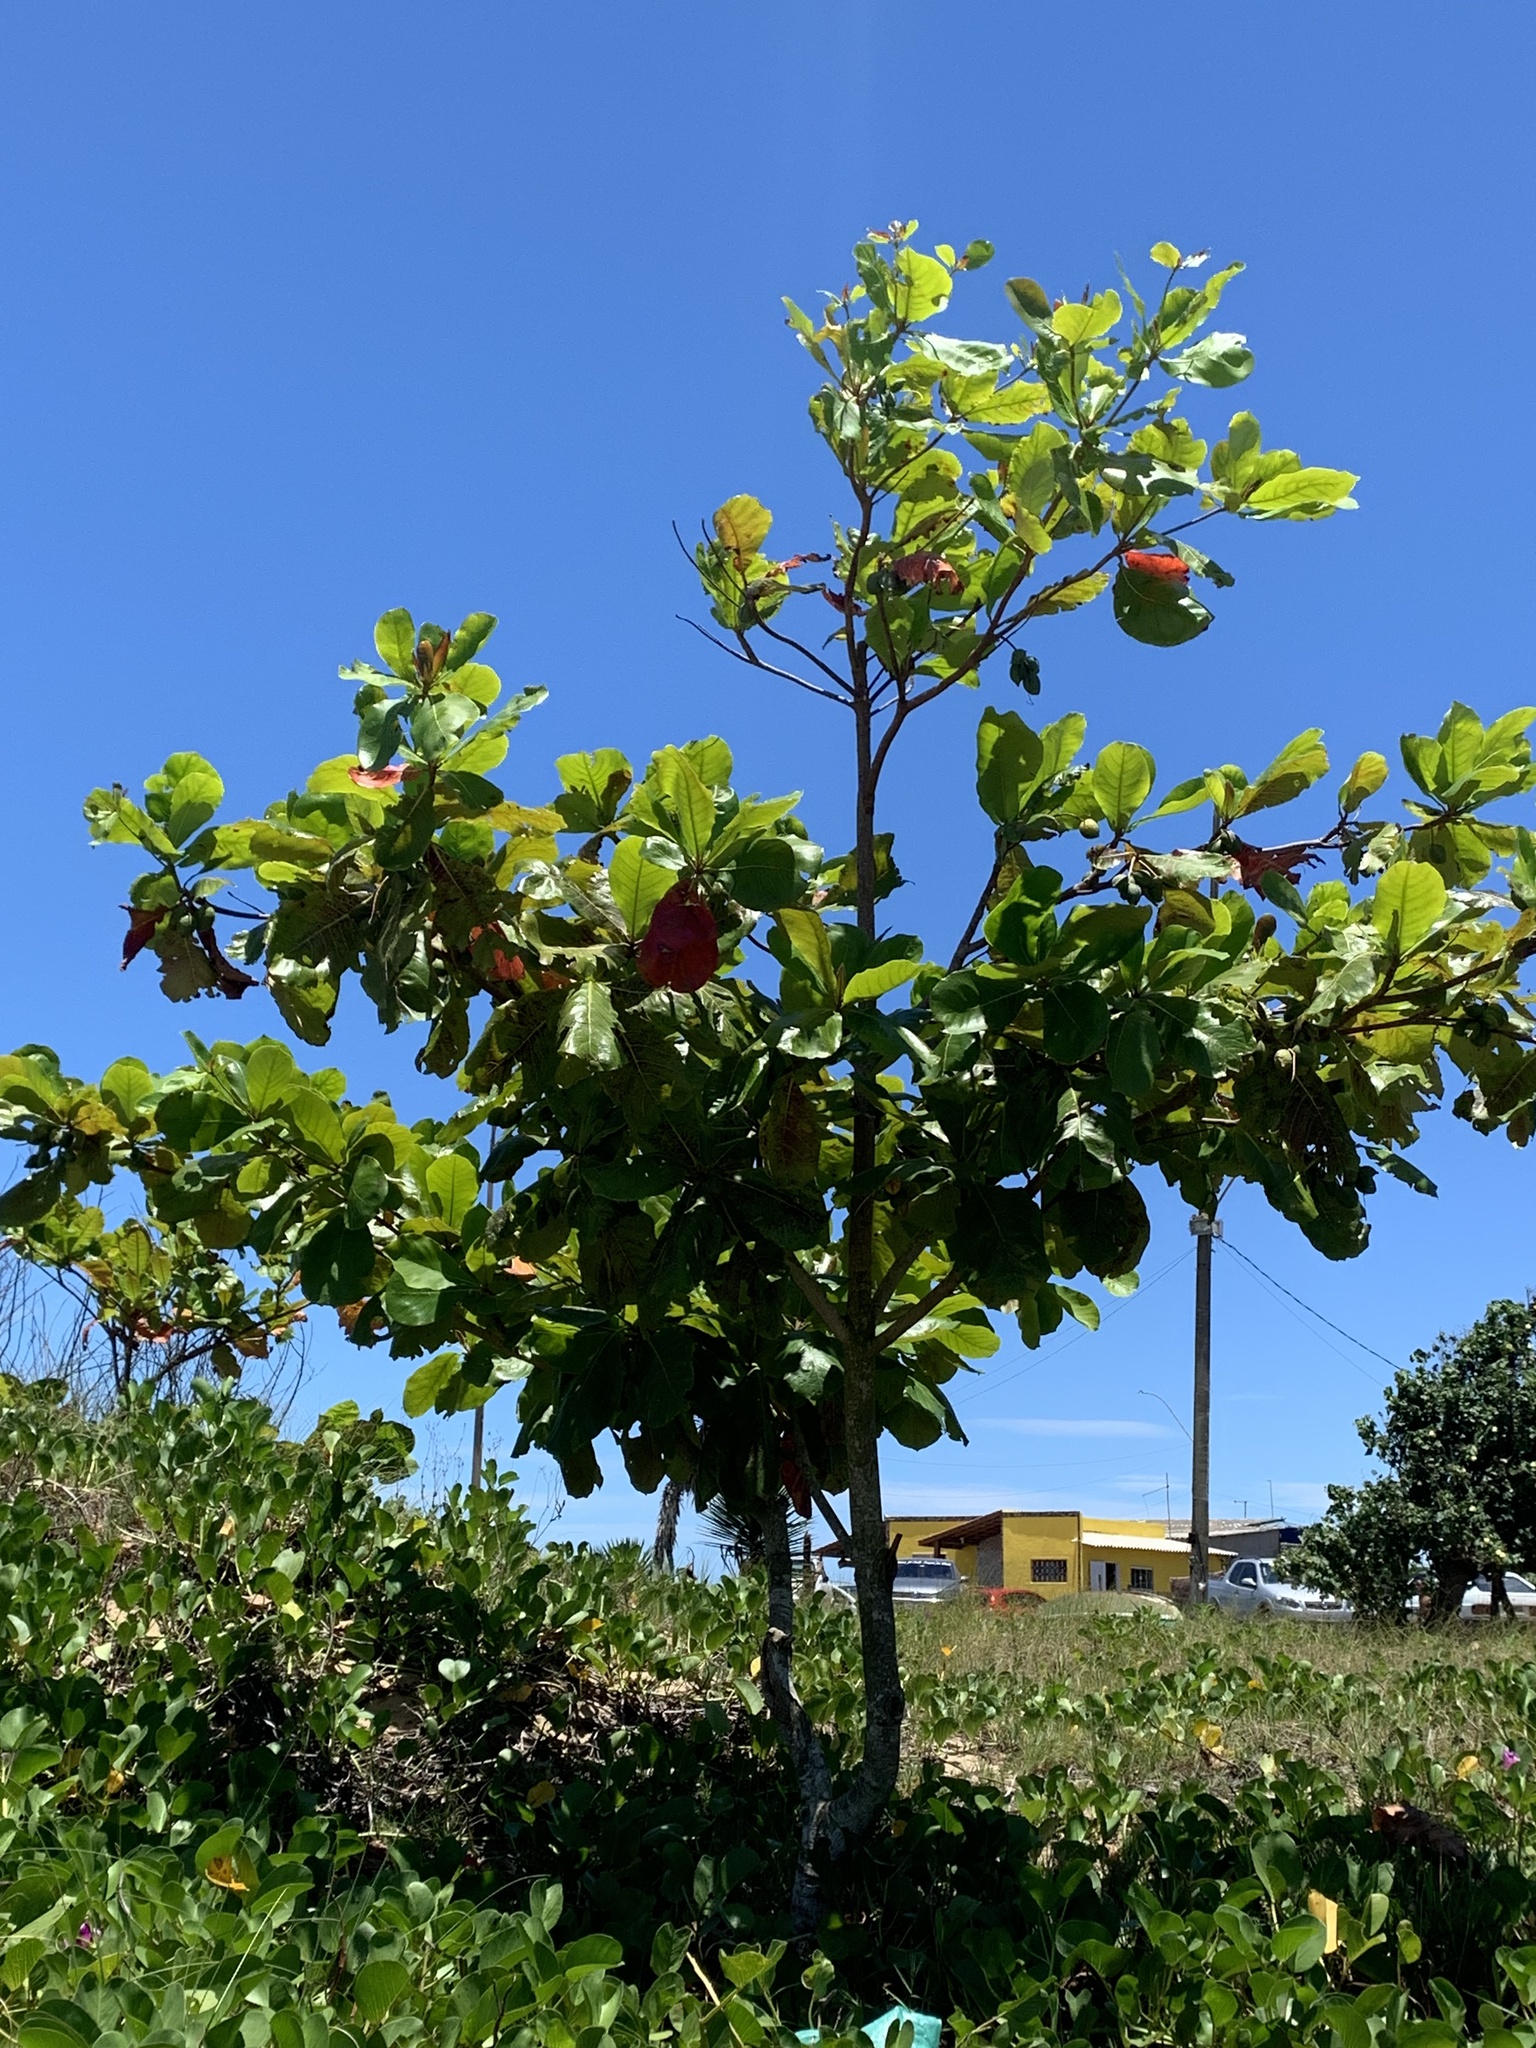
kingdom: Plantae
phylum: Tracheophyta
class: Magnoliopsida
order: Myrtales
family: Combretaceae
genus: Terminalia
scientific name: Terminalia catappa
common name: Tropical almond
